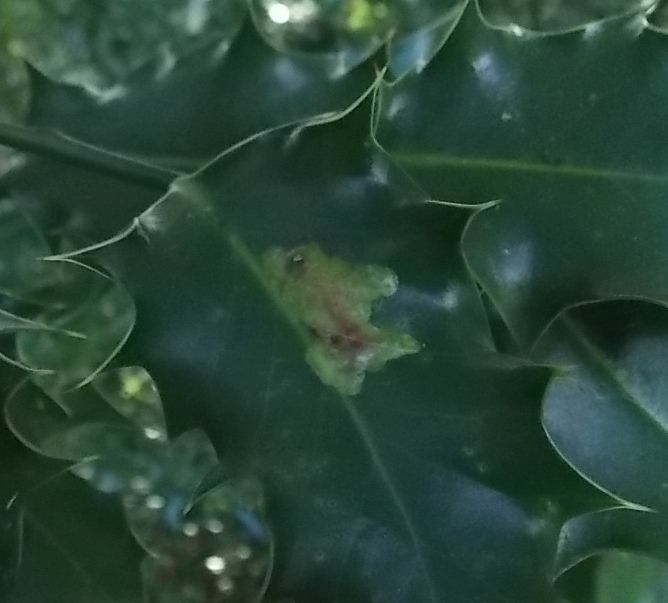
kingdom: Animalia
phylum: Arthropoda
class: Insecta
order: Diptera
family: Agromyzidae
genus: Phytomyza
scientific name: Phytomyza ilicis
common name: Holly leafminer
